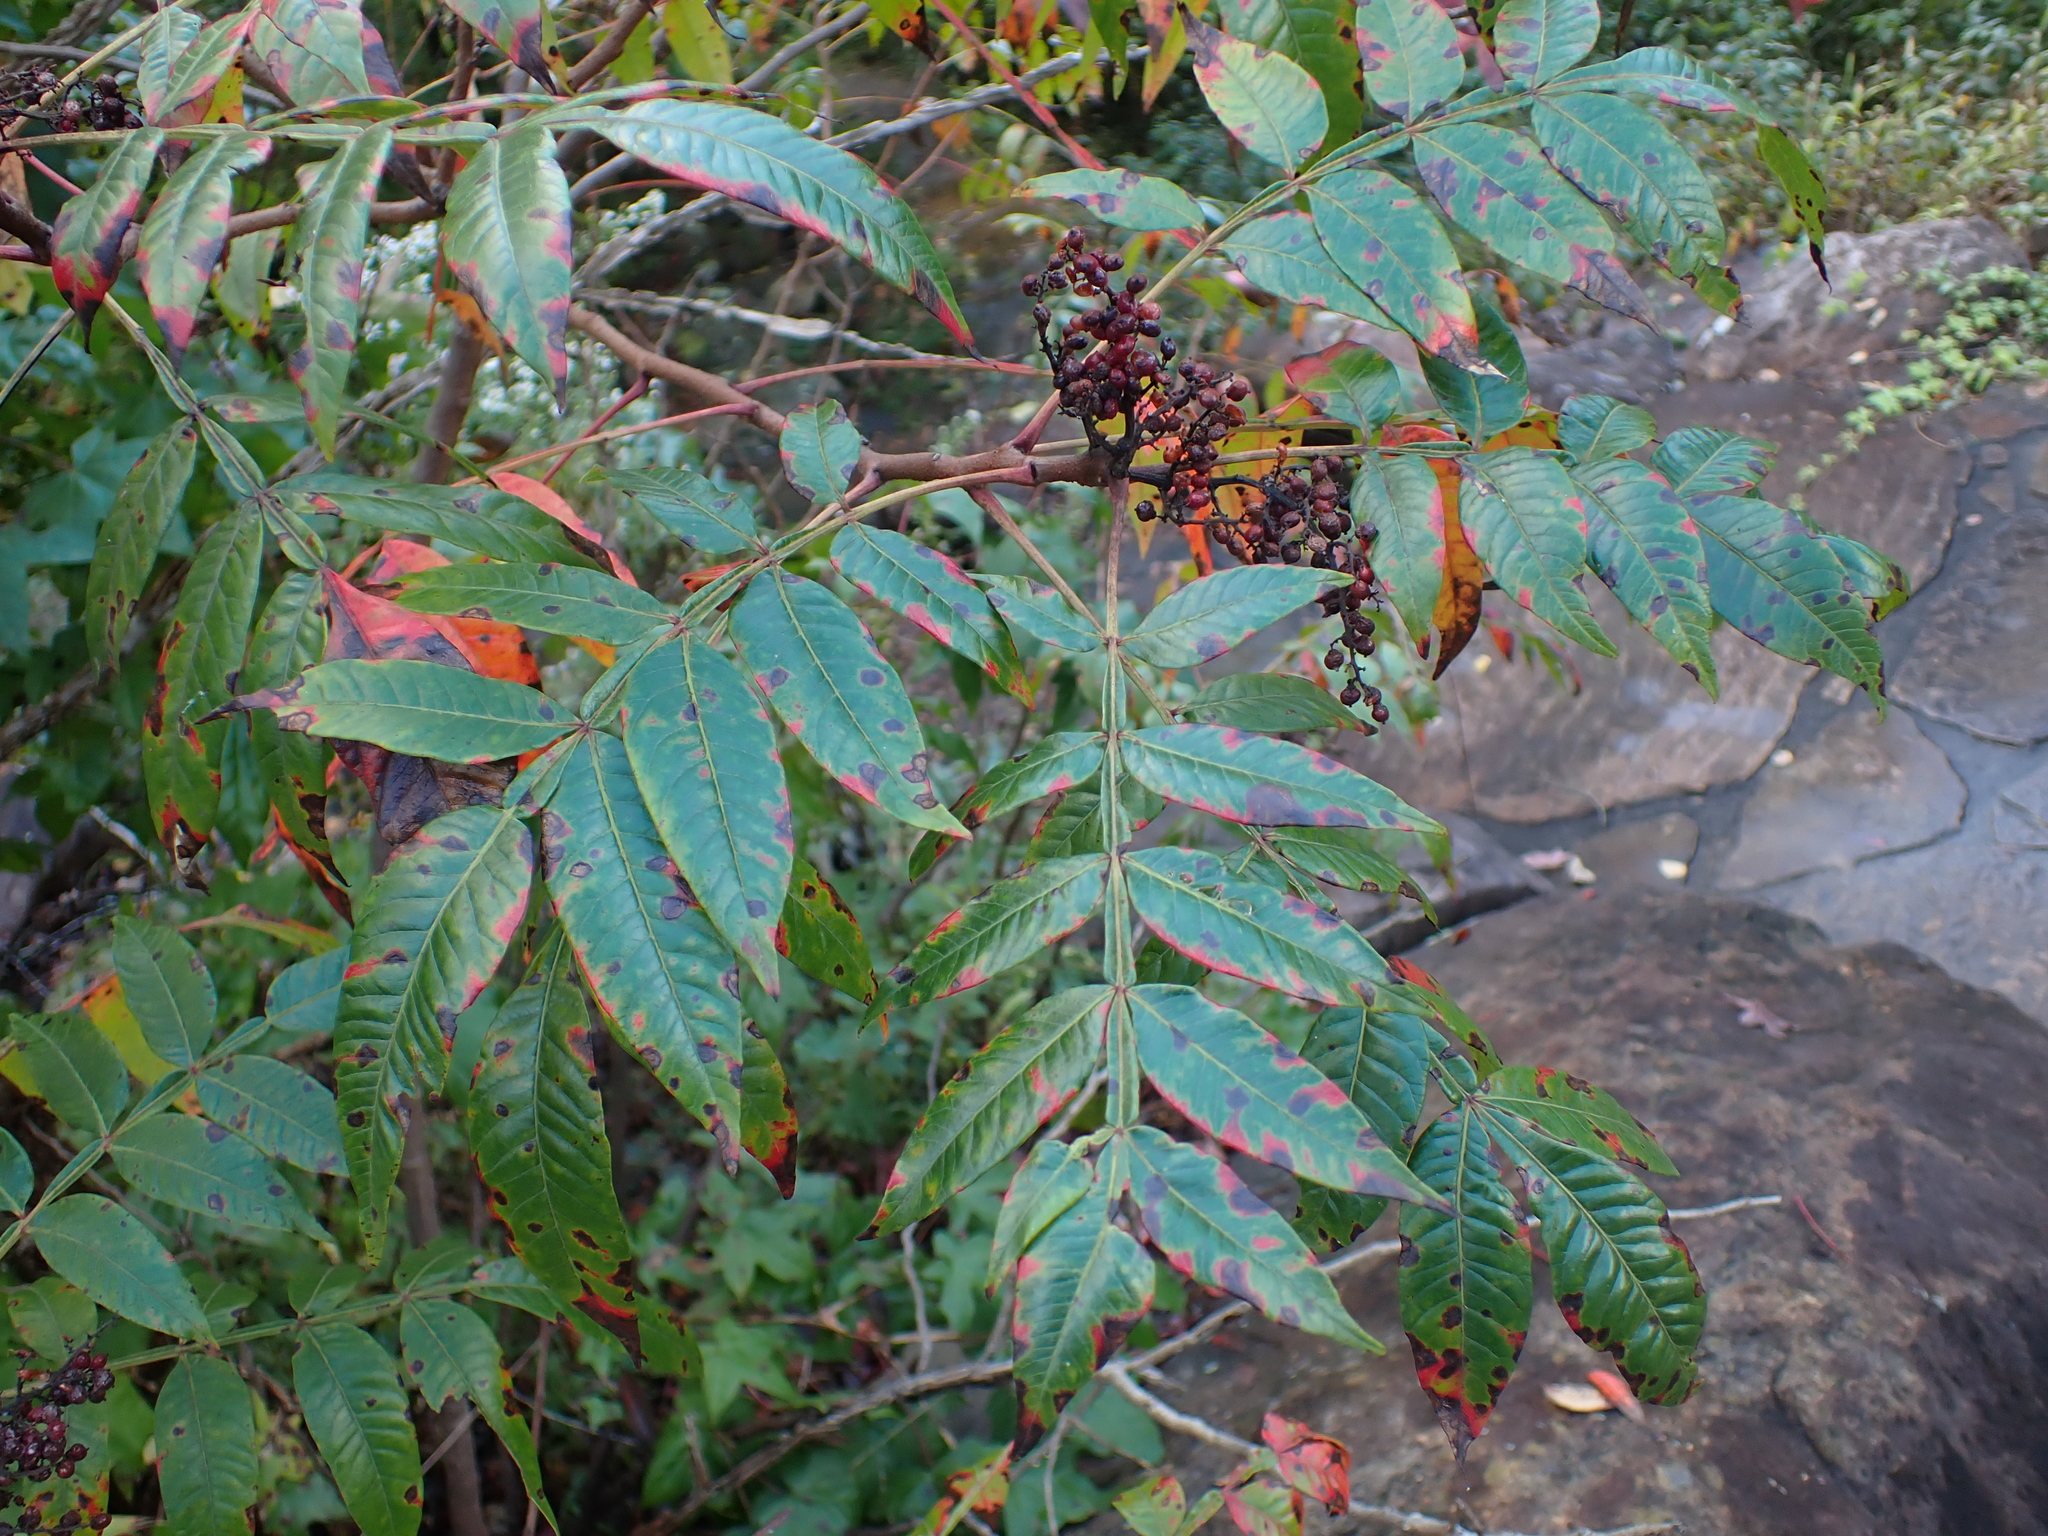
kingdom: Plantae
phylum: Tracheophyta
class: Magnoliopsida
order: Sapindales
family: Anacardiaceae
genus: Rhus
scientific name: Rhus copallina
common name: Shining sumac
